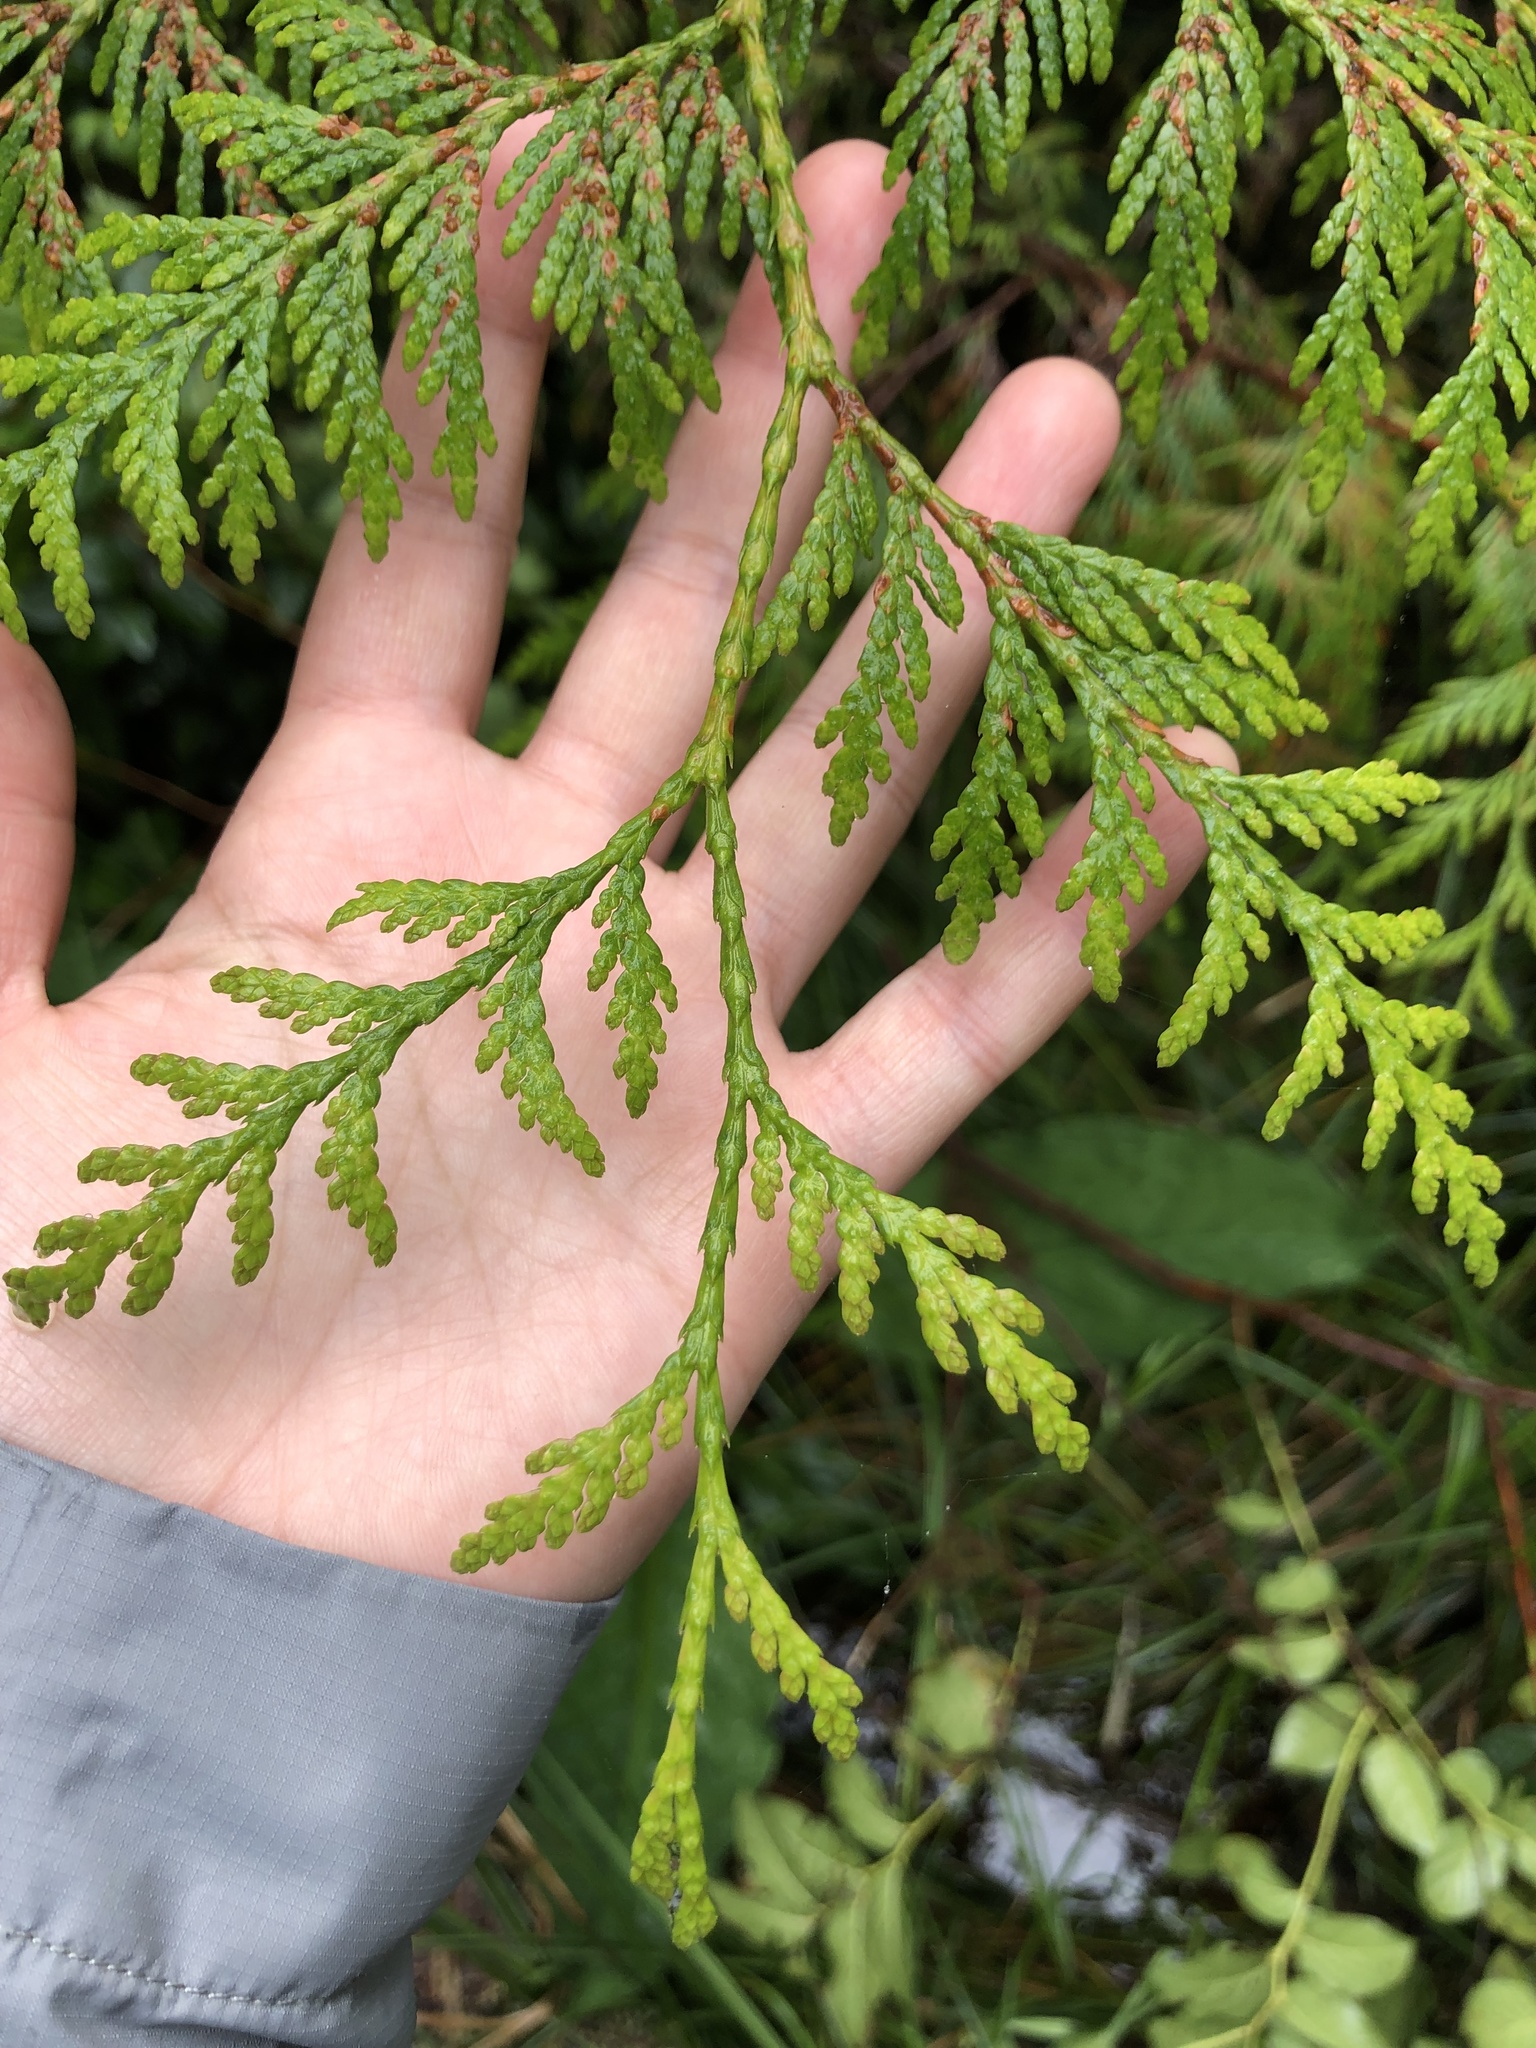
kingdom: Plantae
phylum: Tracheophyta
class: Pinopsida
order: Pinales
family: Cupressaceae
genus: Thuja
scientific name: Thuja plicata
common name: Western red-cedar
